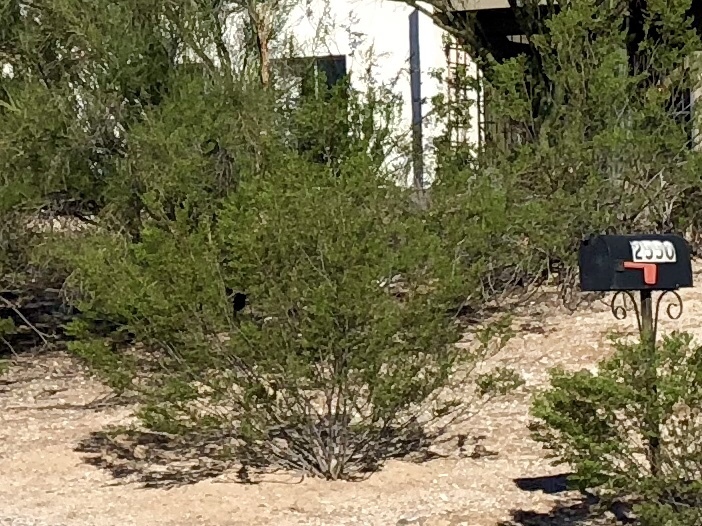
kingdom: Plantae
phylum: Tracheophyta
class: Magnoliopsida
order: Zygophyllales
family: Zygophyllaceae
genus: Larrea
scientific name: Larrea tridentata
